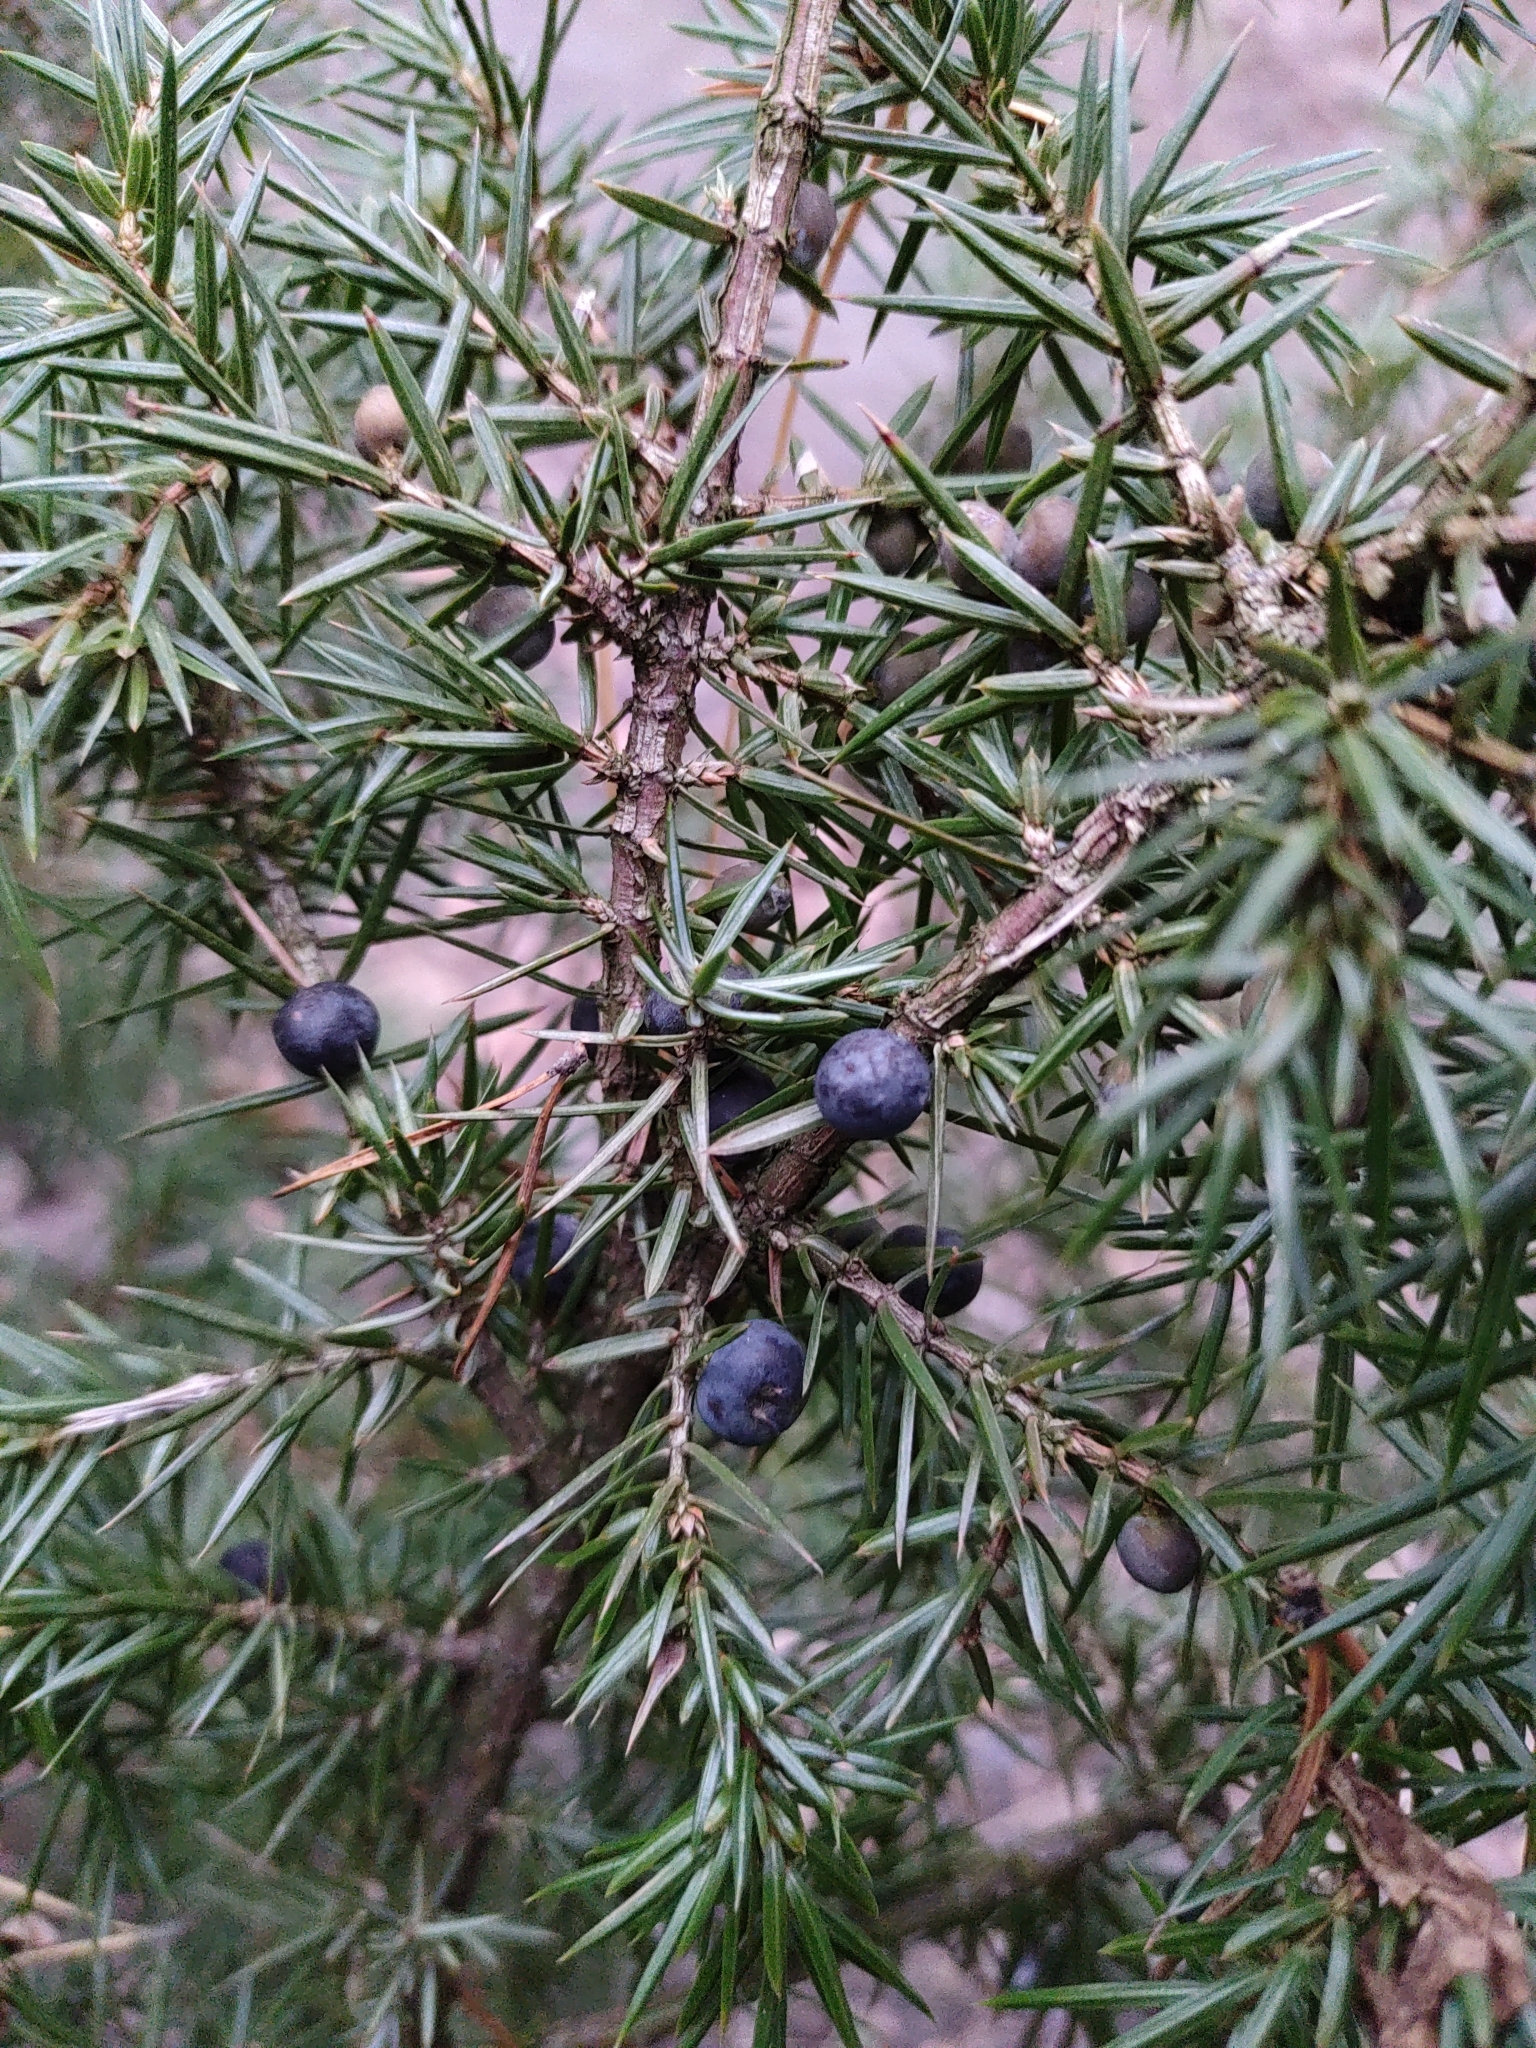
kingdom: Plantae
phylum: Tracheophyta
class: Pinopsida
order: Pinales
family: Cupressaceae
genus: Juniperus
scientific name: Juniperus communis
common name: Common juniper
